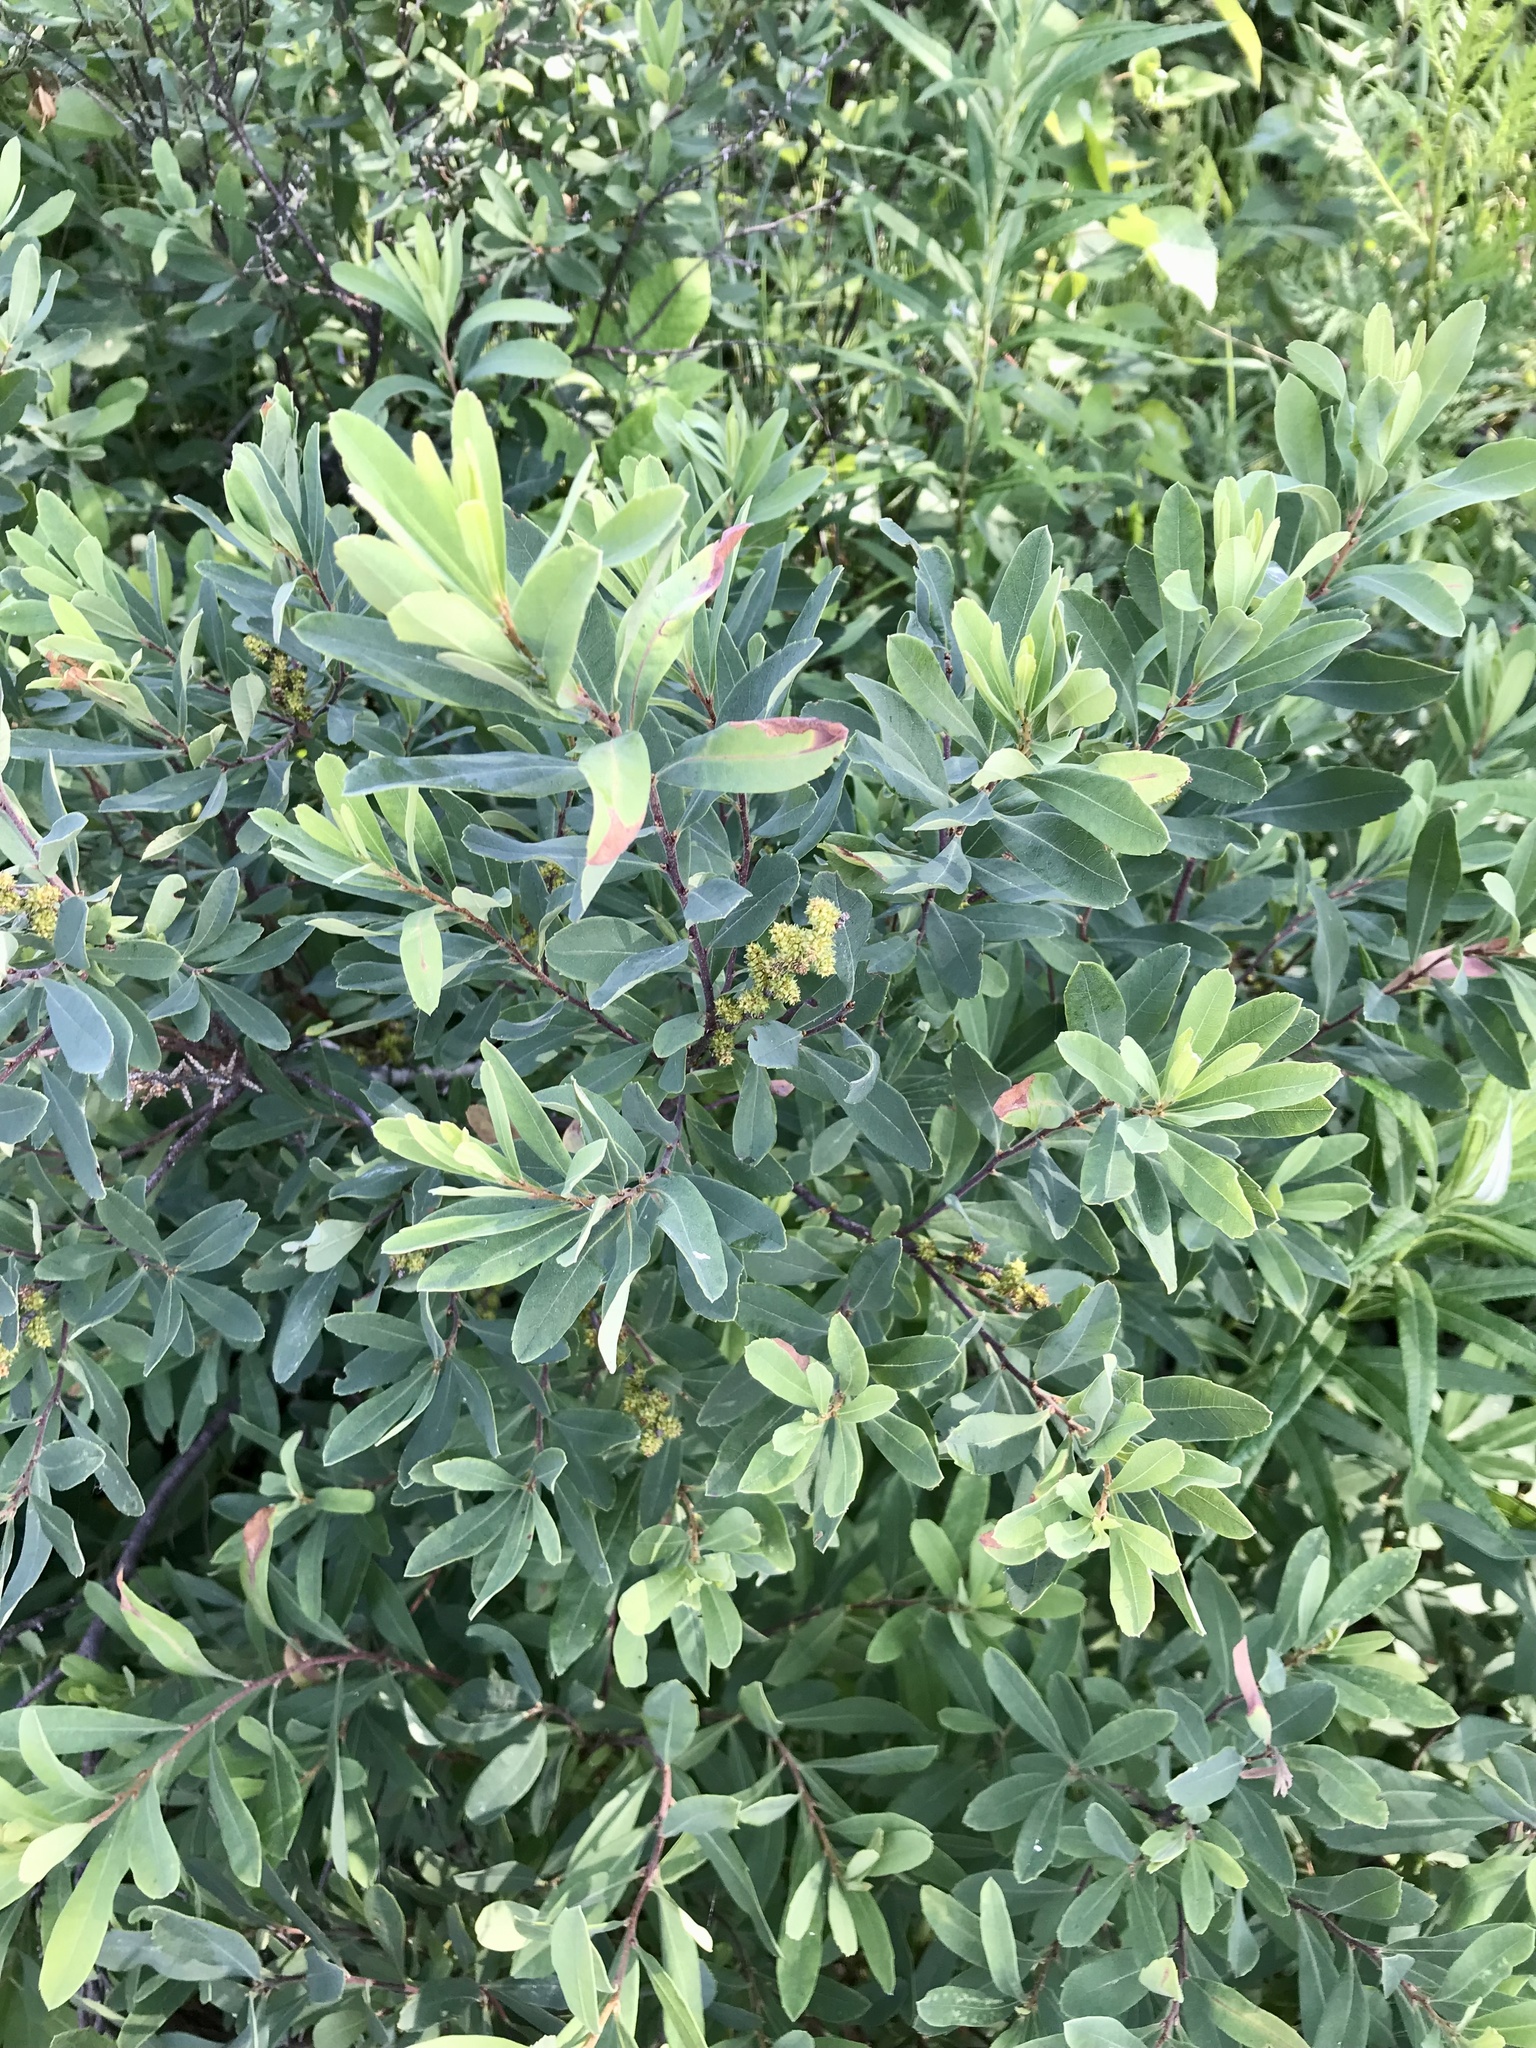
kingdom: Plantae
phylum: Tracheophyta
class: Magnoliopsida
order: Fagales
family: Myricaceae
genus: Myrica
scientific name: Myrica gale
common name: Sweet gale
